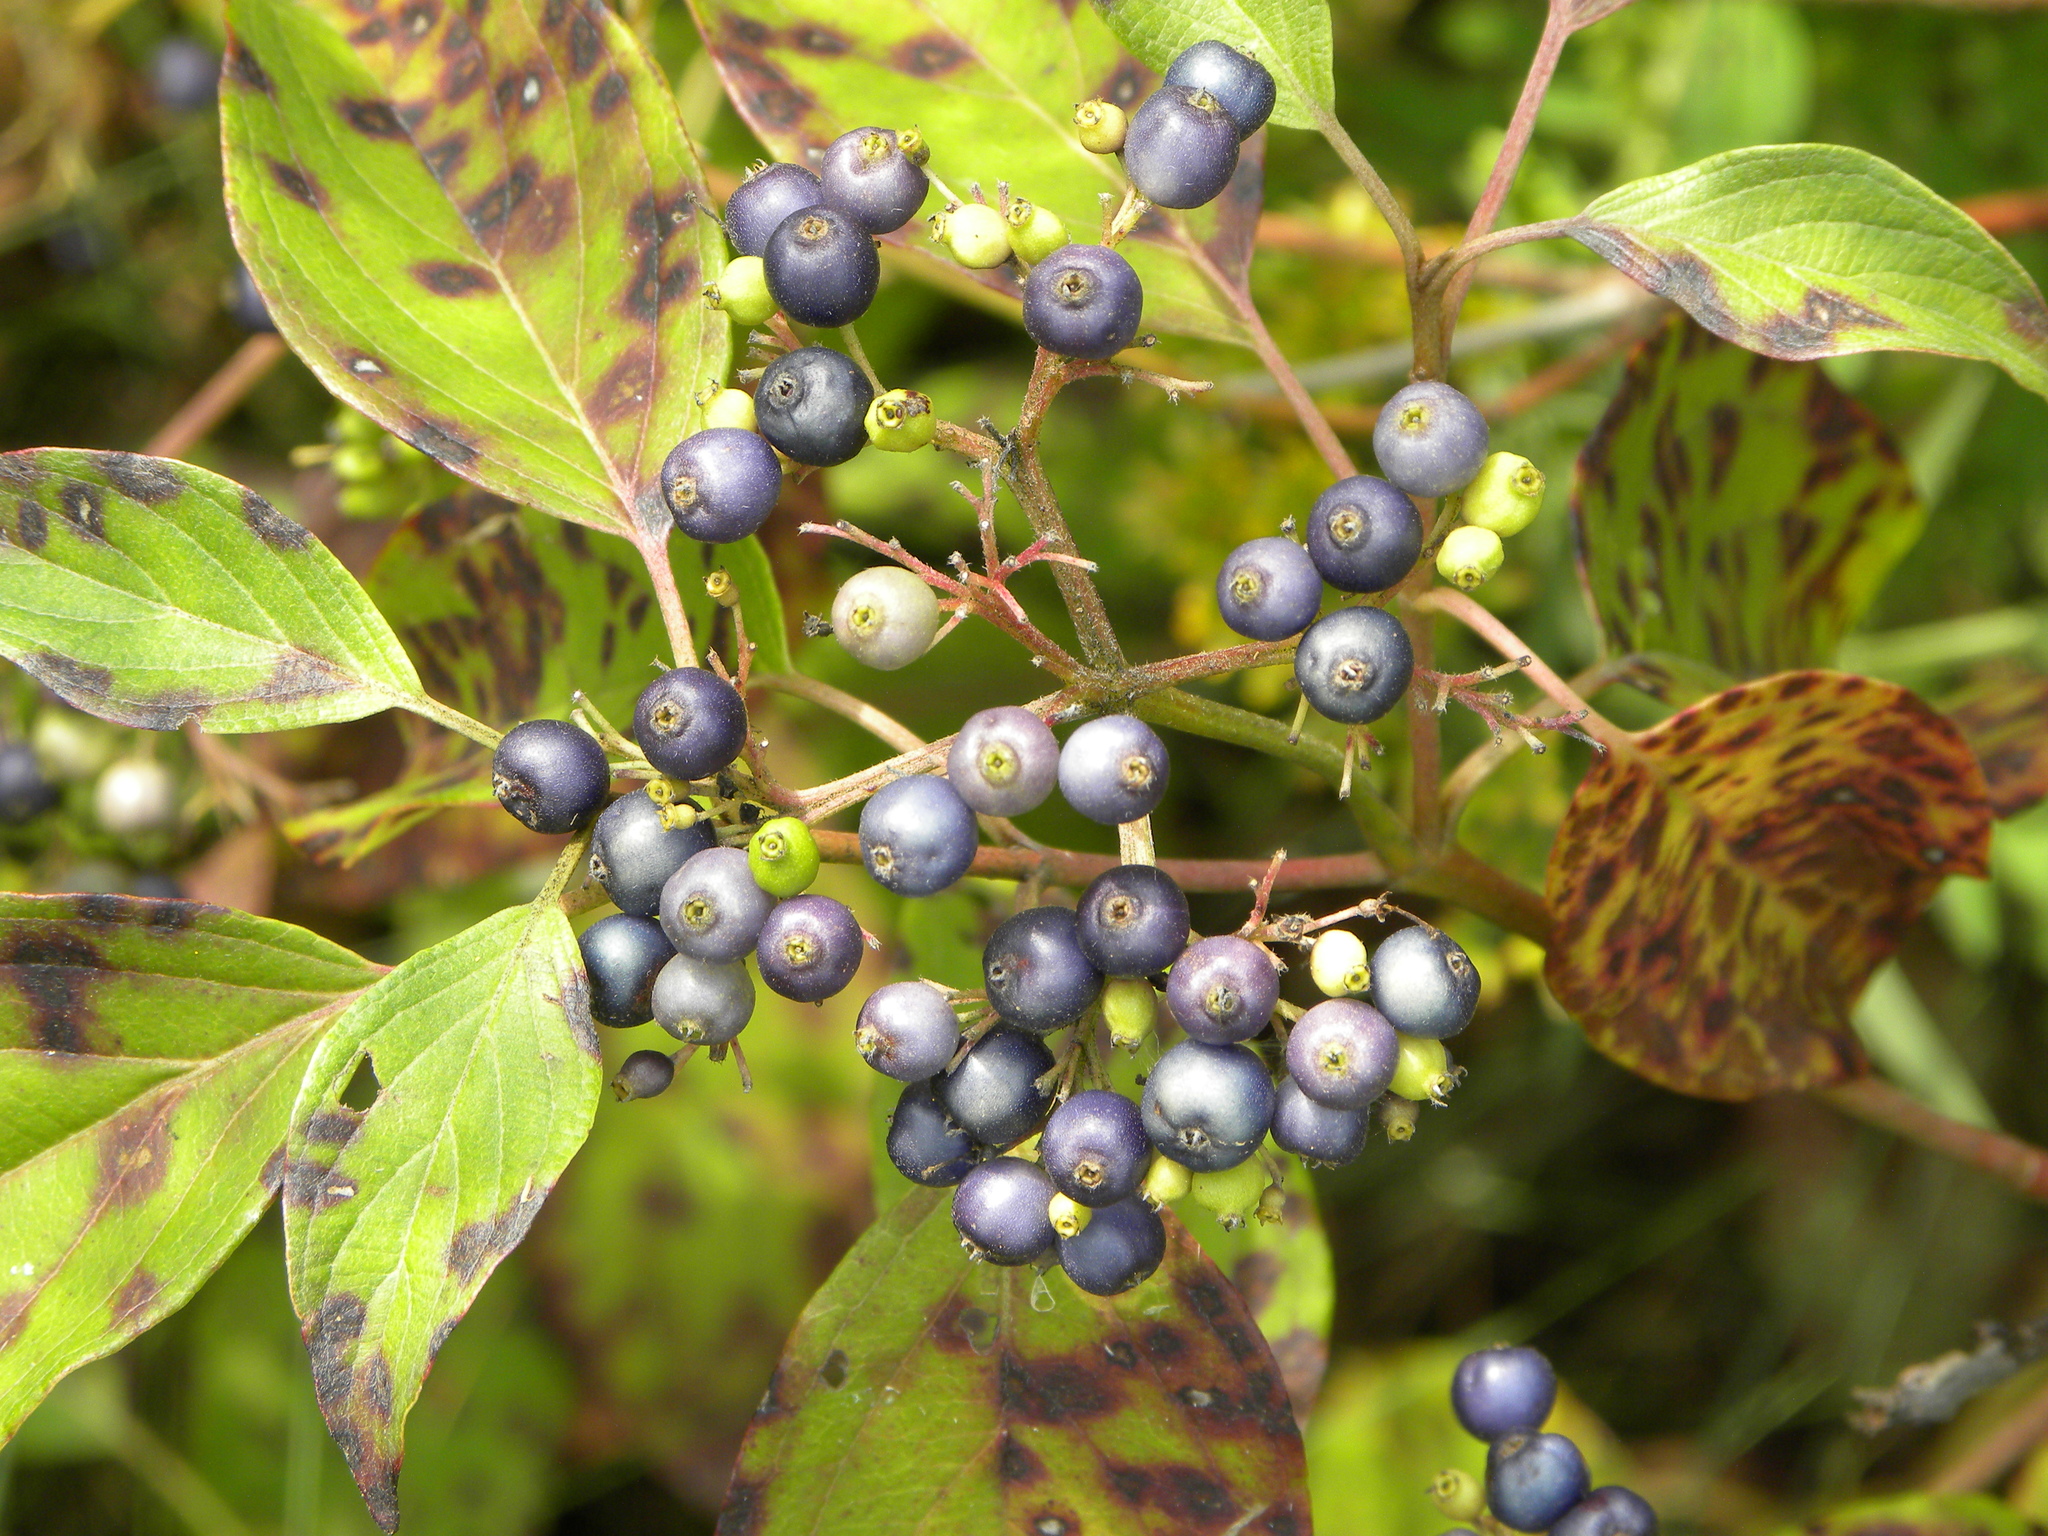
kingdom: Plantae
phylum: Tracheophyta
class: Magnoliopsida
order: Cornales
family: Cornaceae
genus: Cornus
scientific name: Cornus amomum
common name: Silky dogwood
